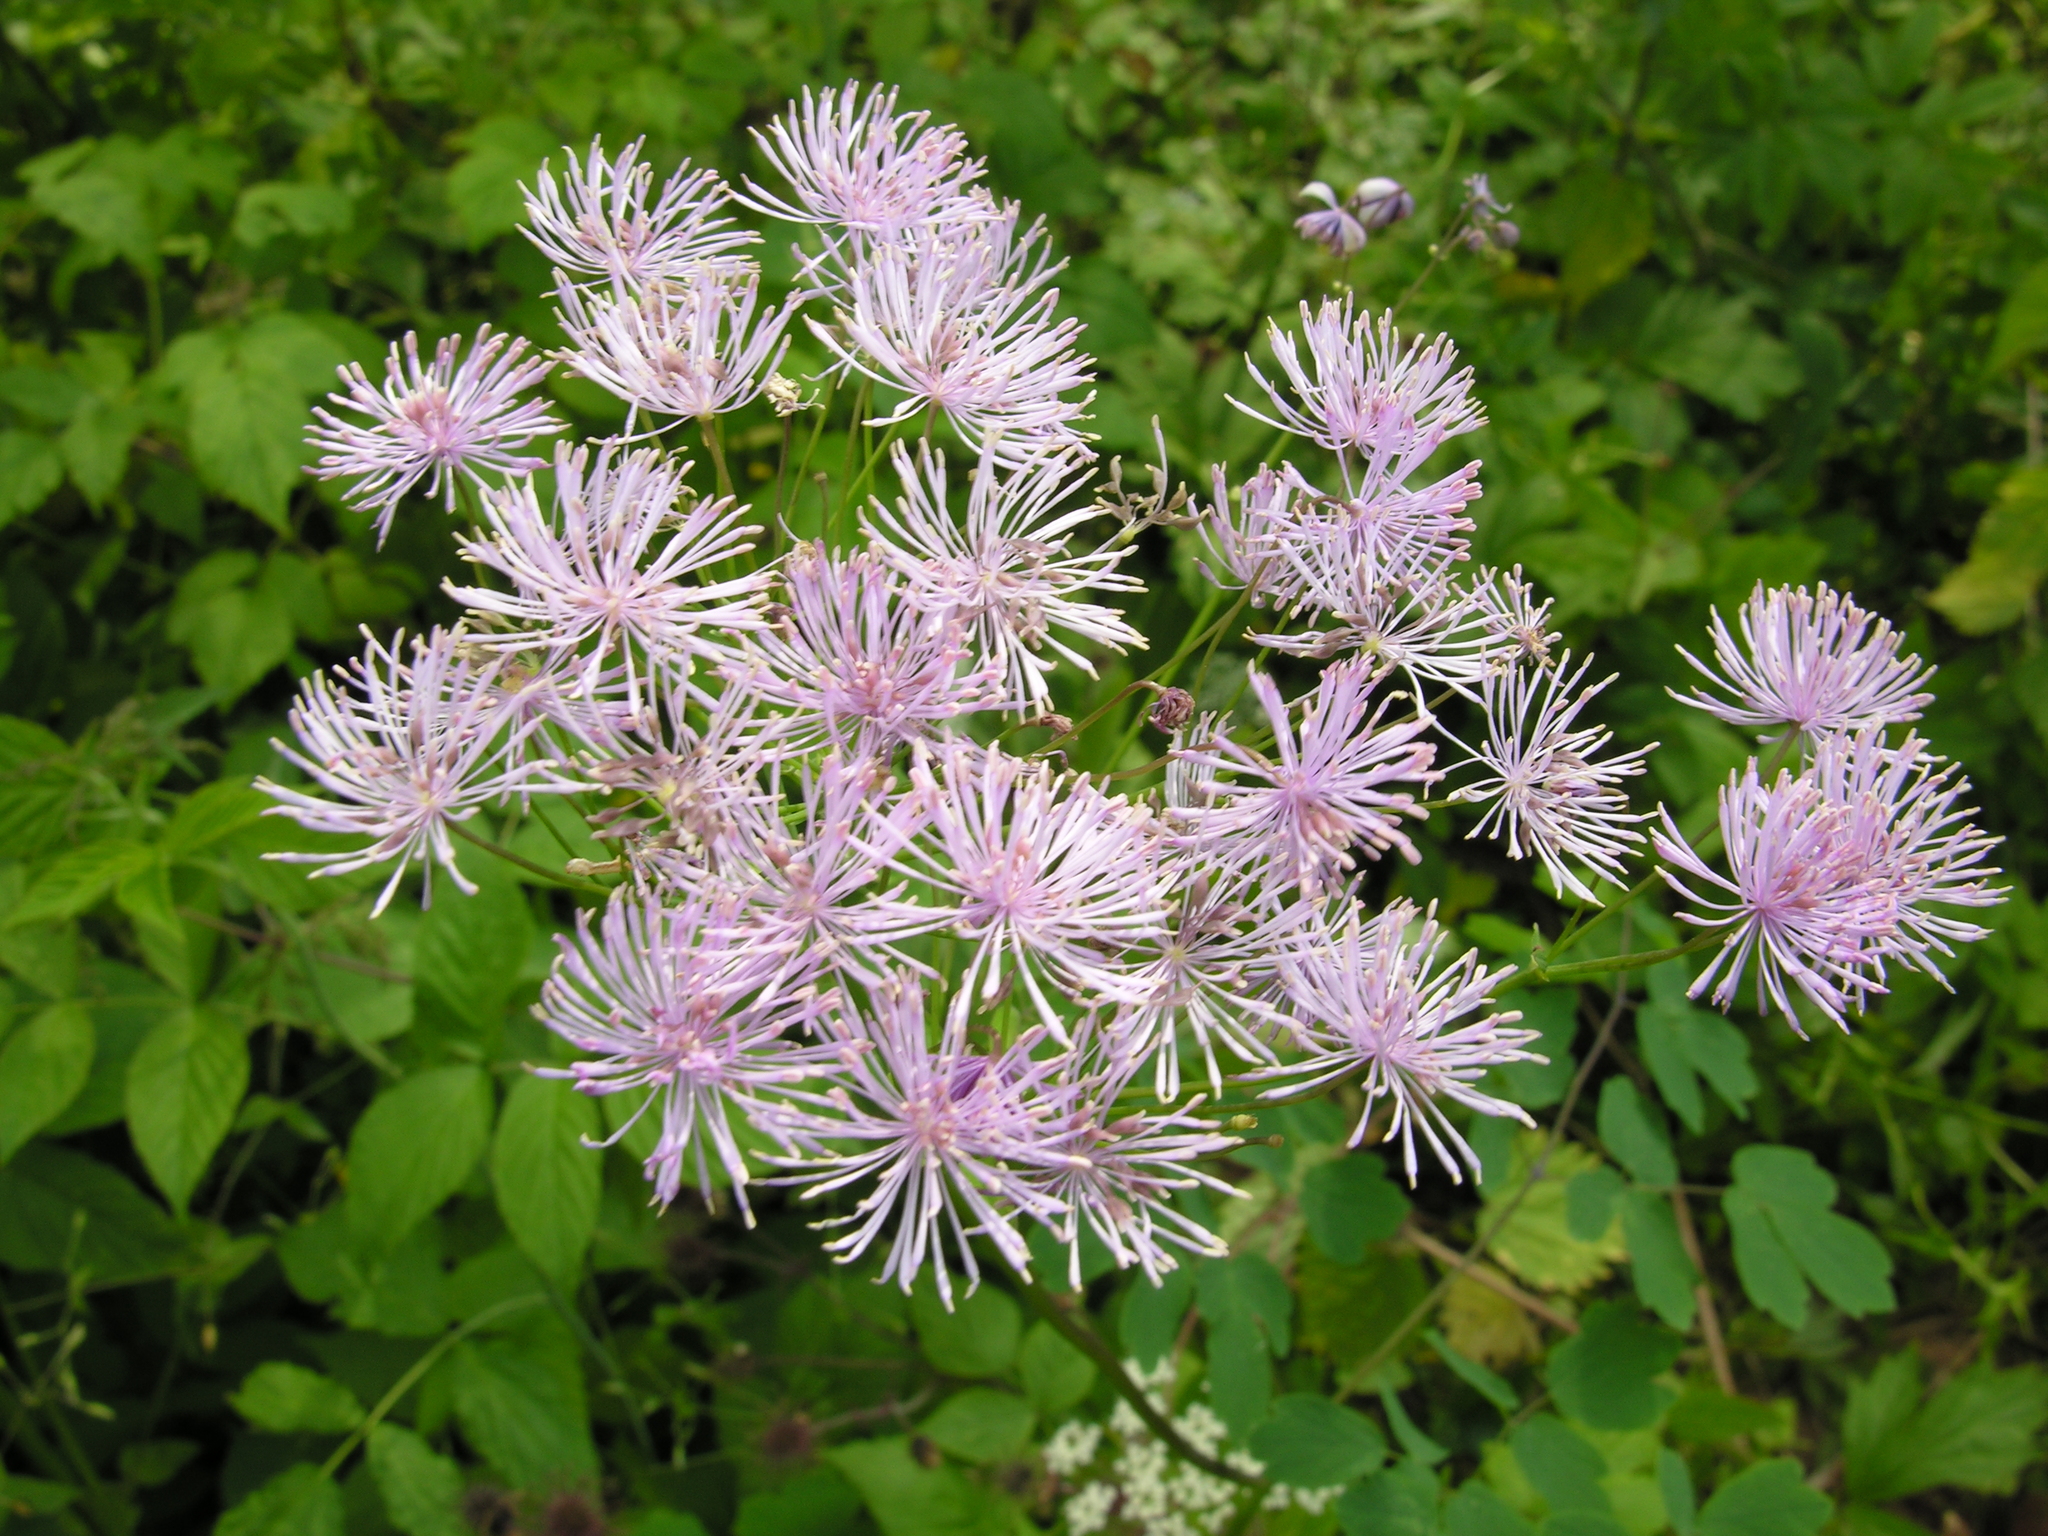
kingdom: Plantae
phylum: Tracheophyta
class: Magnoliopsida
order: Ranunculales
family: Ranunculaceae
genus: Thalictrum
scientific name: Thalictrum aquilegiifolium
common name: French meadow-rue
